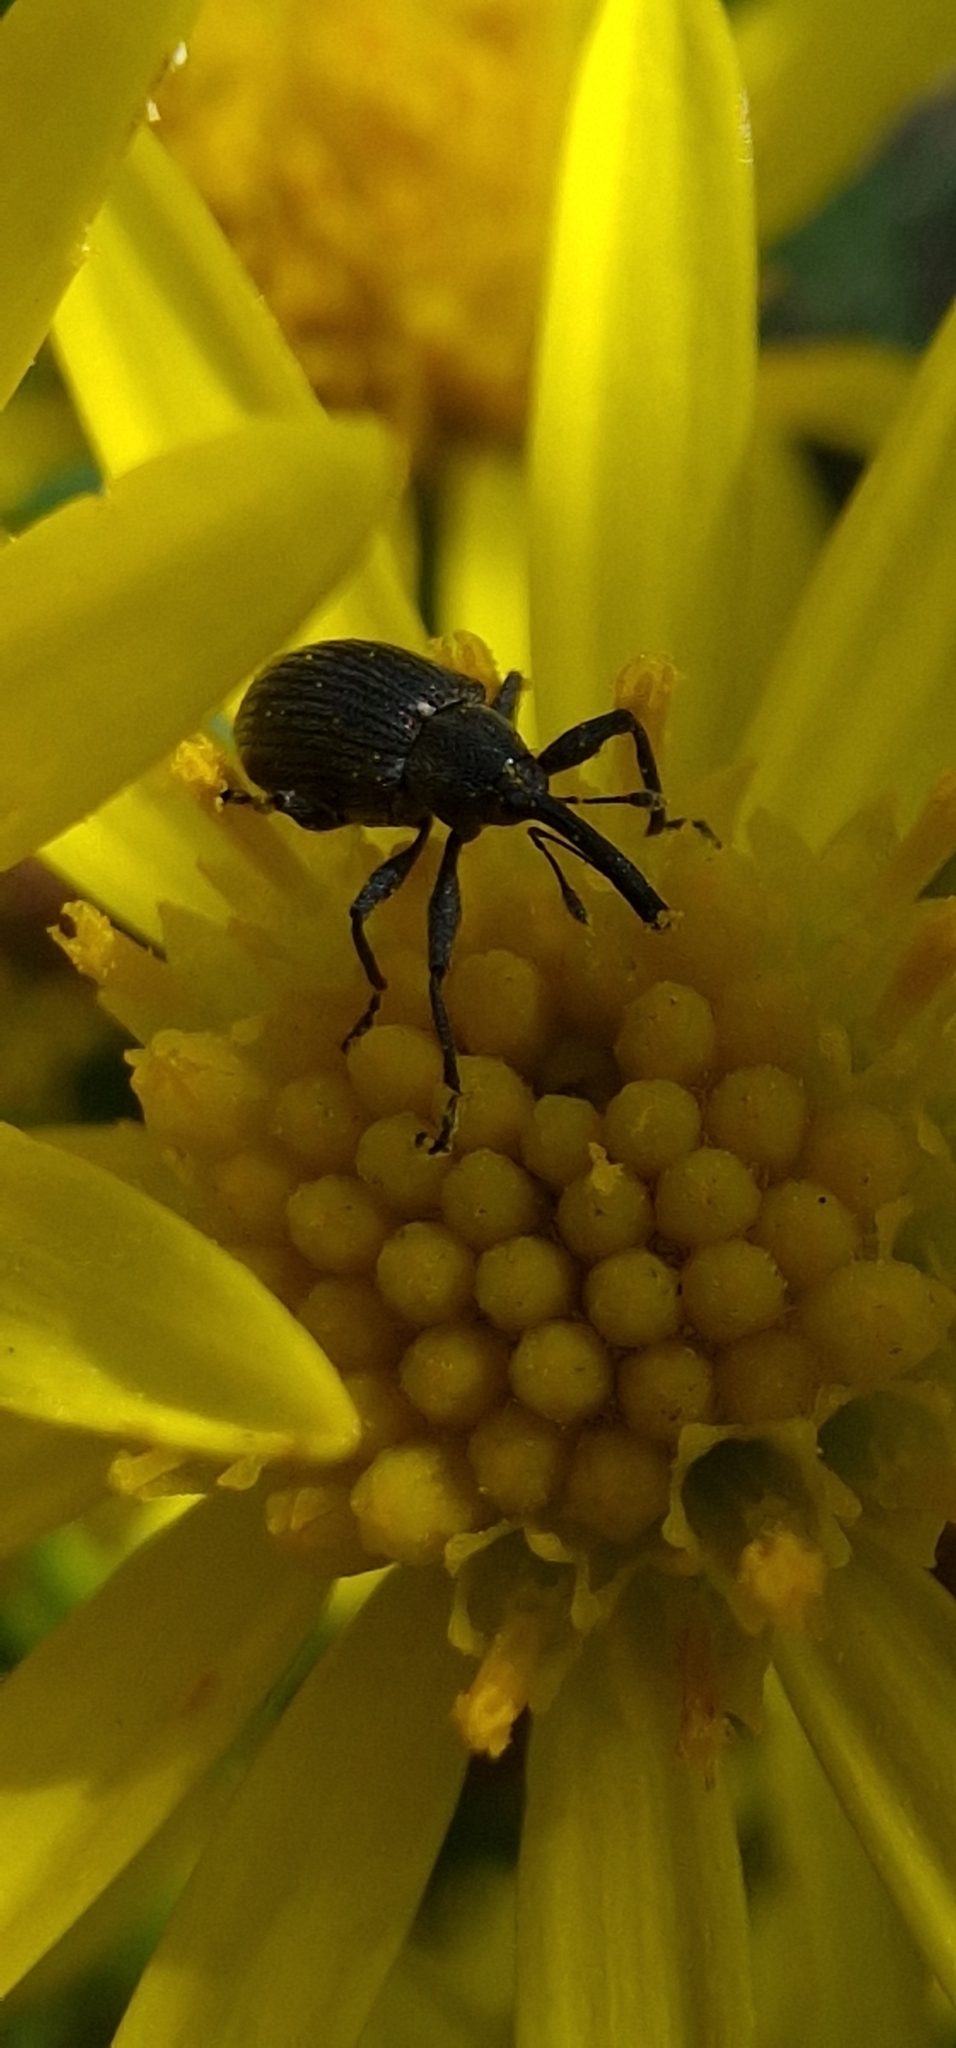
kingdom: Animalia
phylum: Arthropoda
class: Insecta
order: Coleoptera
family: Curculionidae
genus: Anthonomus
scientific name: Anthonomus rubi
